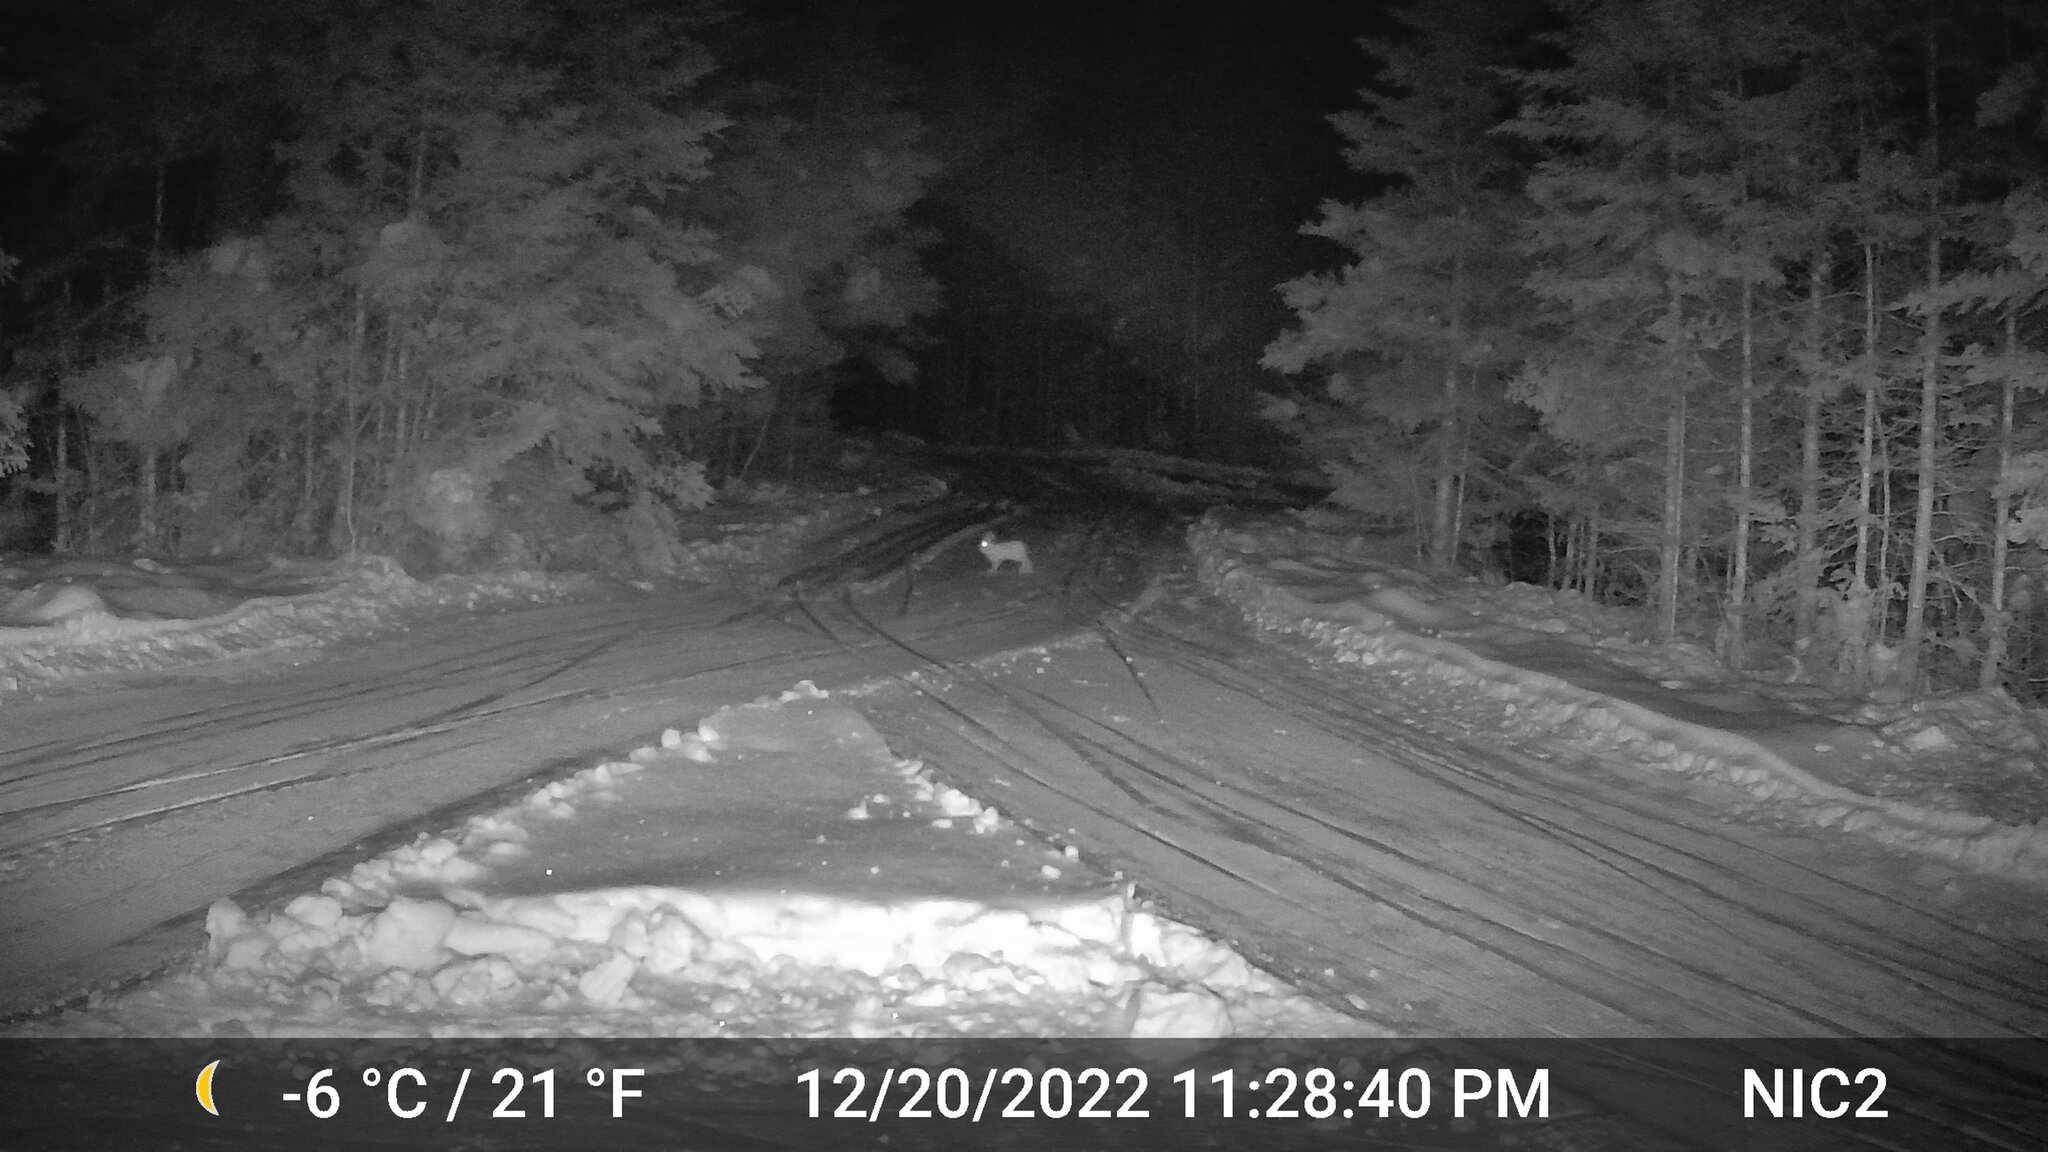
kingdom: Animalia
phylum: Chordata
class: Mammalia
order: Lagomorpha
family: Leporidae
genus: Lepus
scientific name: Lepus americanus
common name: Snowshoe hare
